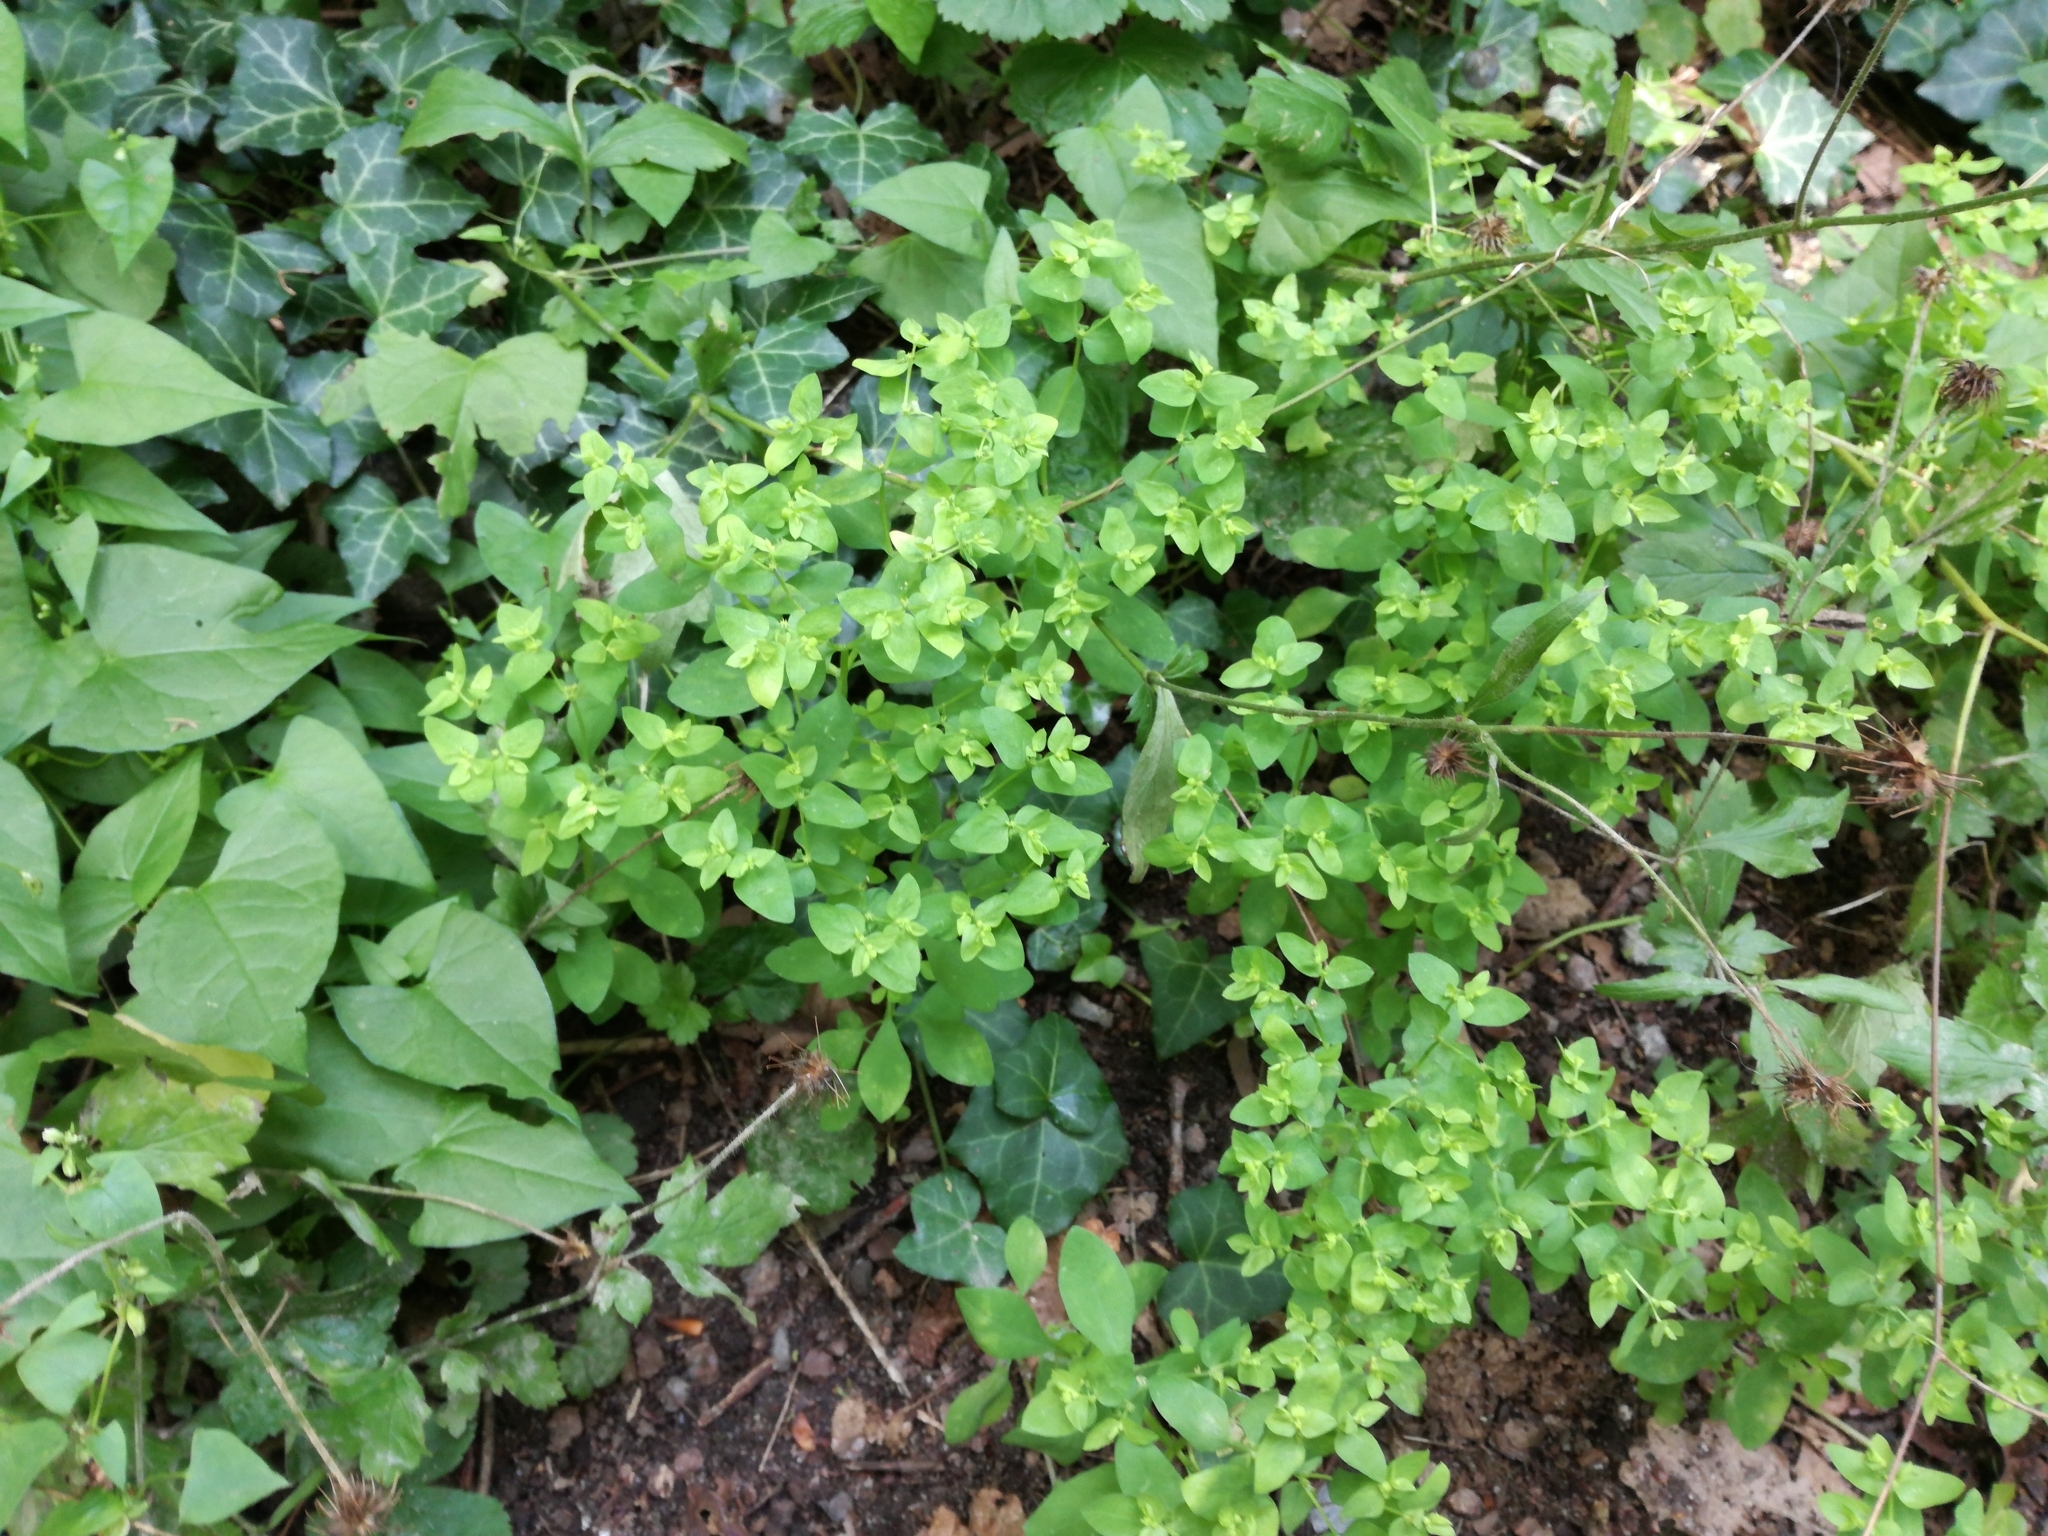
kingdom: Plantae
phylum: Tracheophyta
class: Magnoliopsida
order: Malpighiales
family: Euphorbiaceae
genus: Euphorbia
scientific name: Euphorbia peplus
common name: Petty spurge
